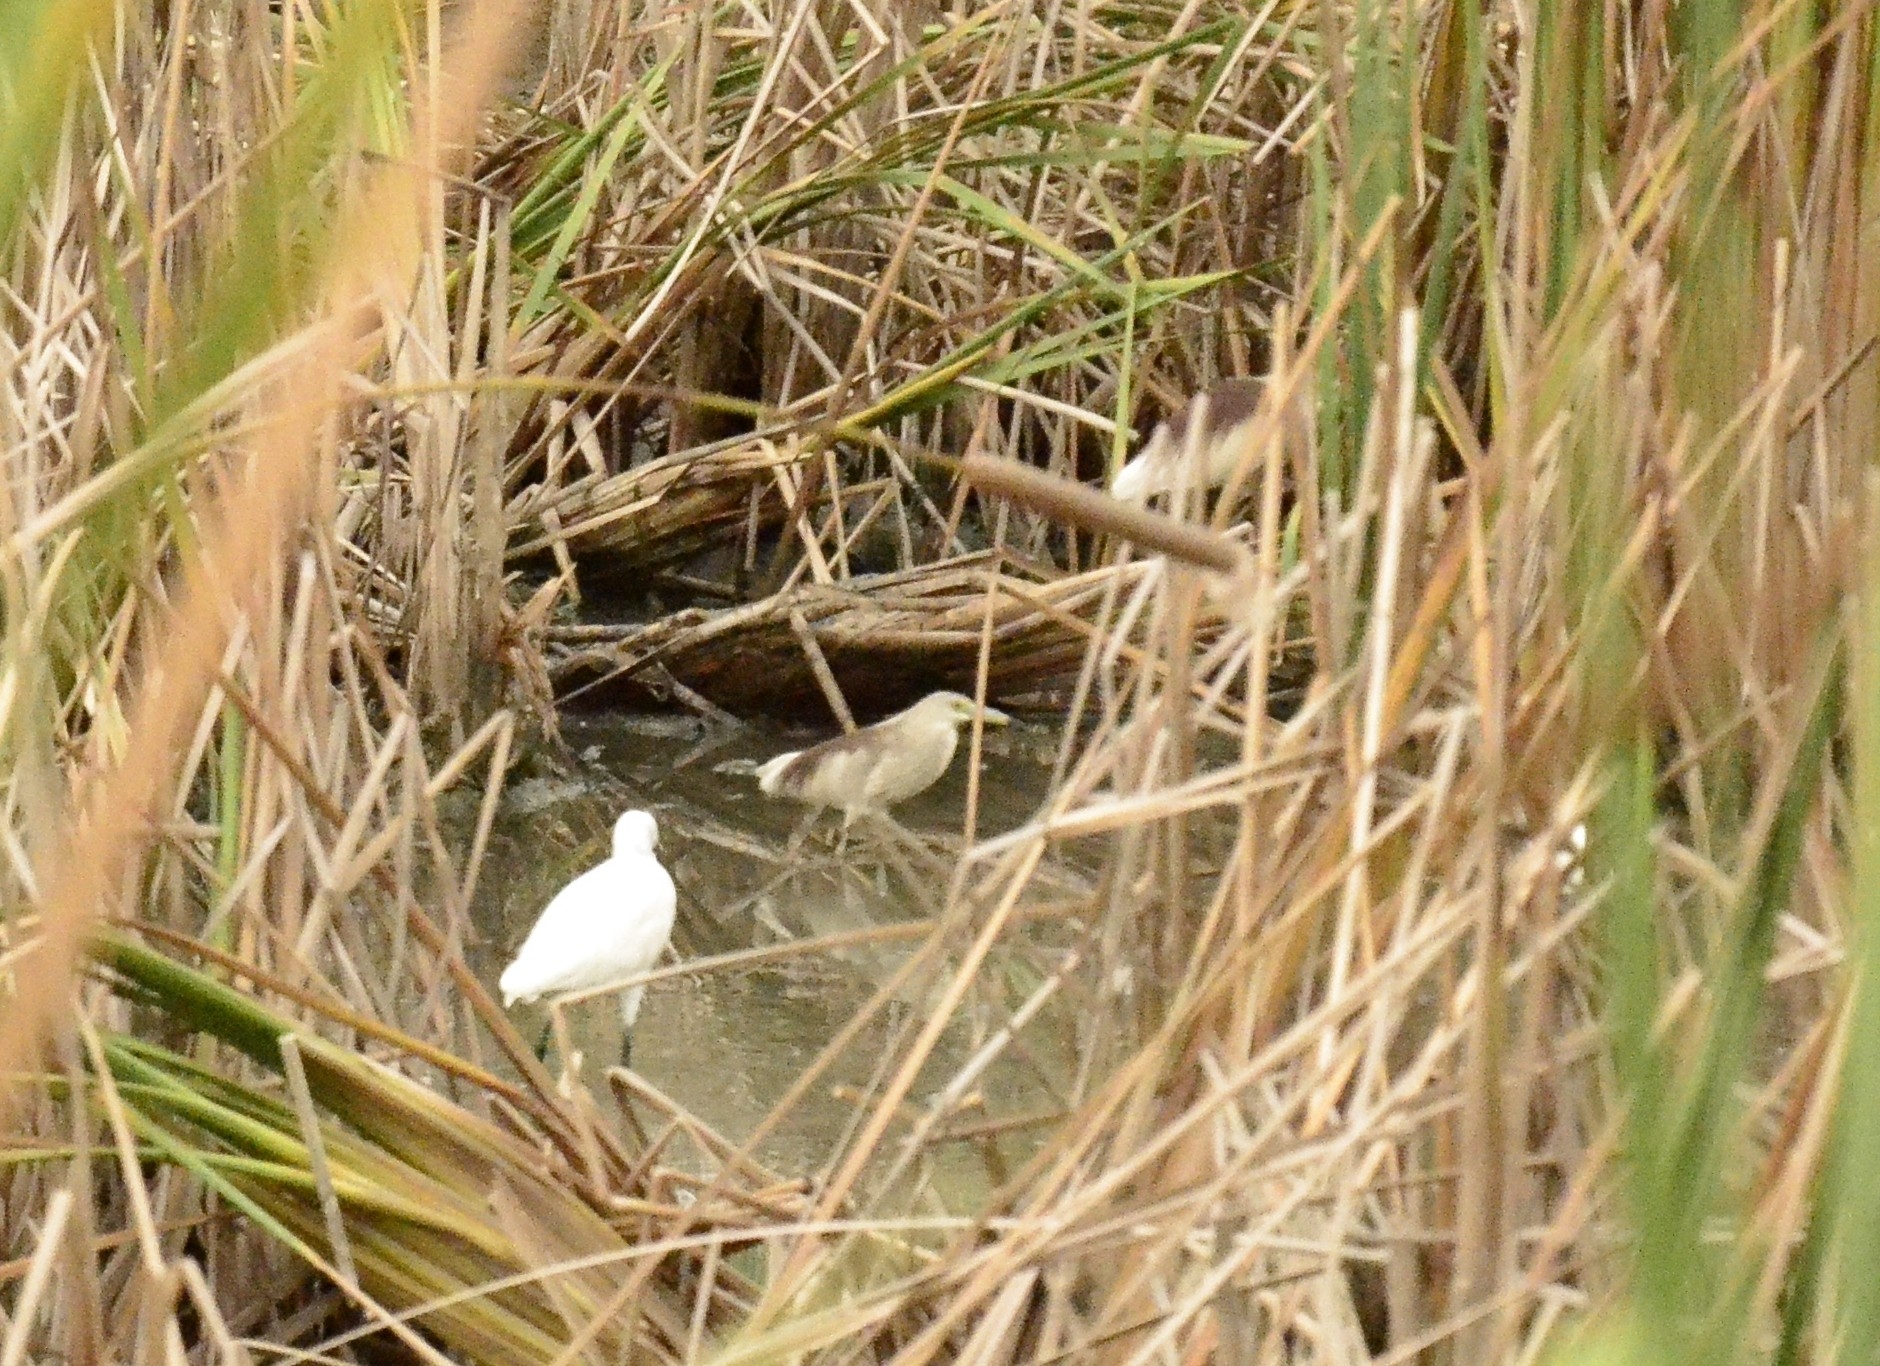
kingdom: Animalia
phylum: Chordata
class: Aves
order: Pelecaniformes
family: Ardeidae
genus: Ardeola
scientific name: Ardeola grayii
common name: Indian pond heron
